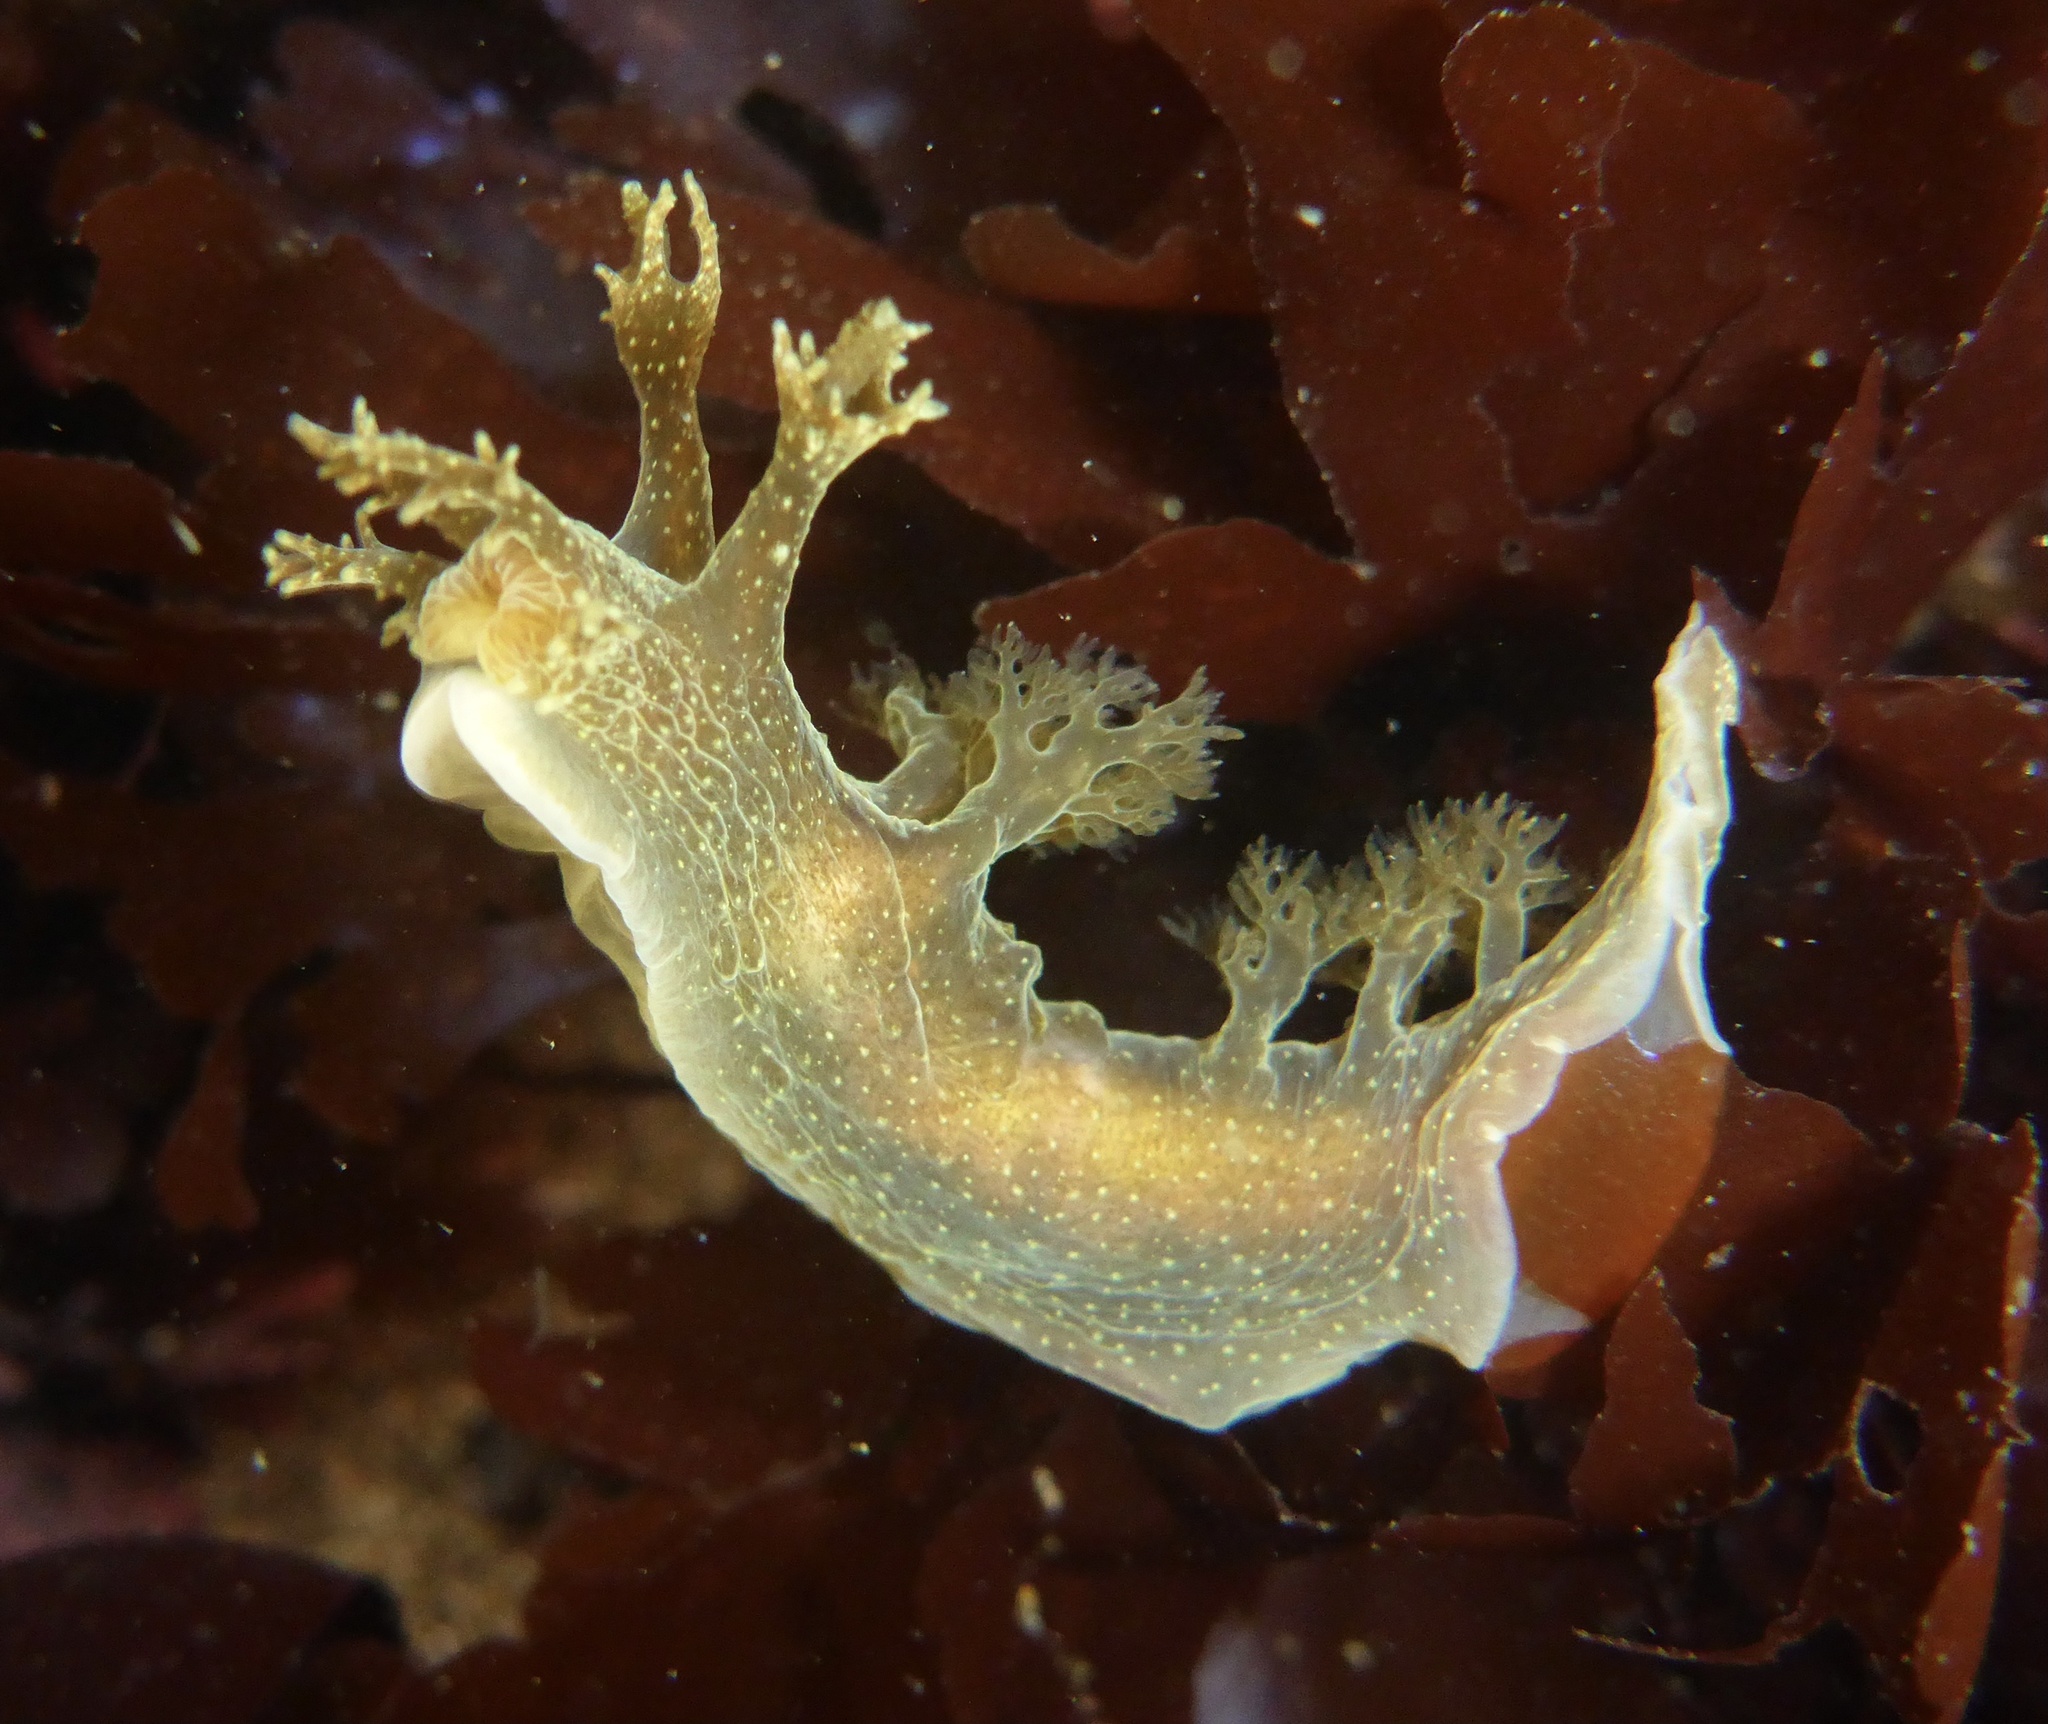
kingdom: Animalia
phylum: Mollusca
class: Gastropoda
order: Nudibranchia
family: Dendronotidae
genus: Dendronotus
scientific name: Dendronotus subramosus
